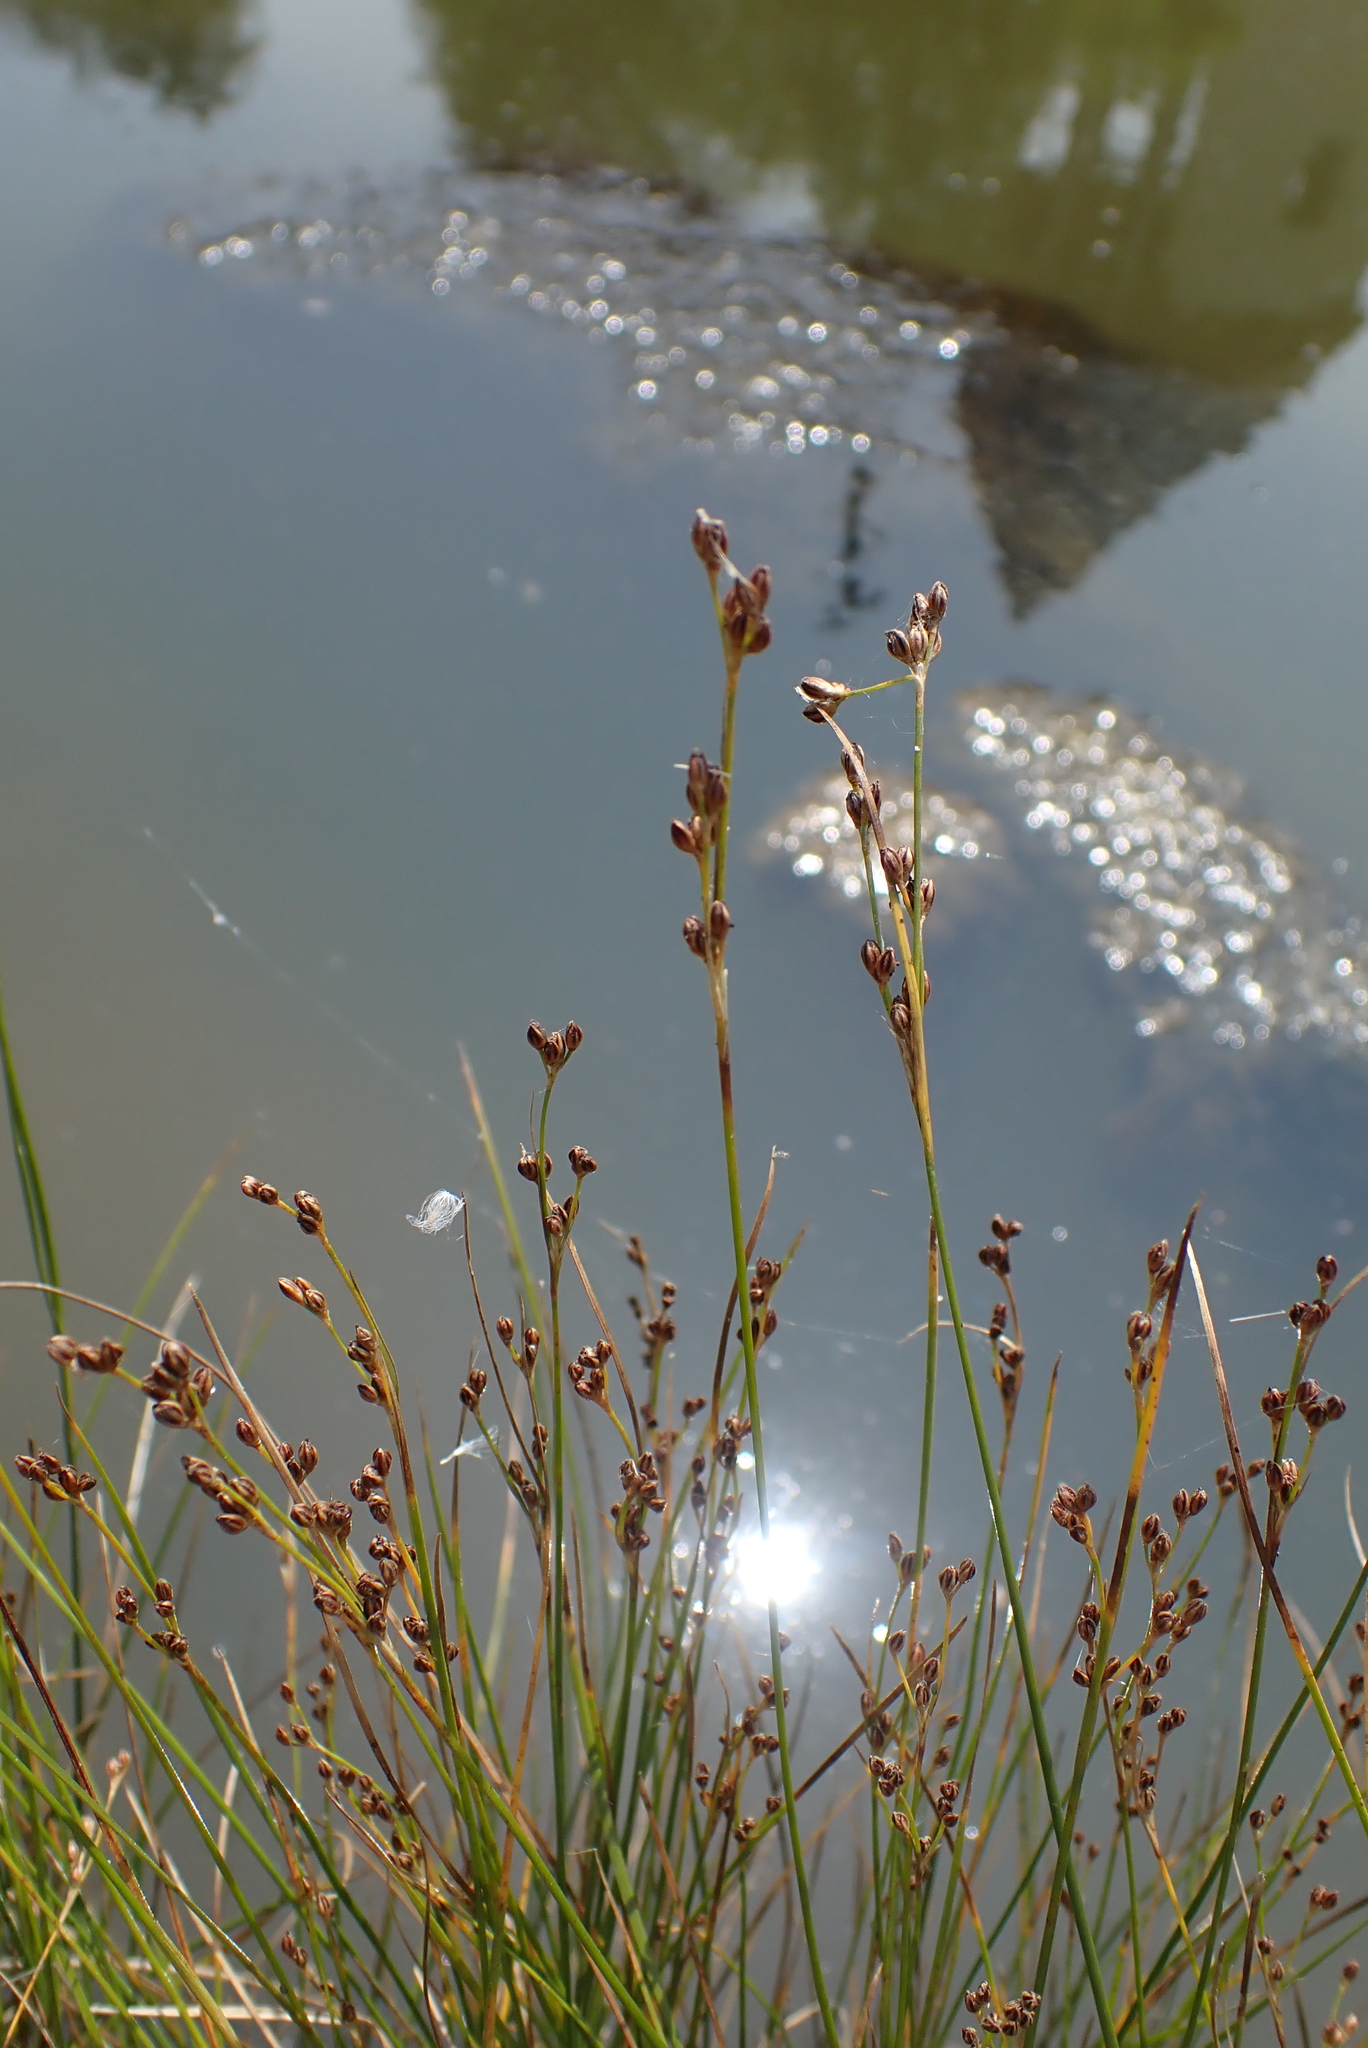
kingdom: Plantae
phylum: Tracheophyta
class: Liliopsida
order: Poales
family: Juncaceae
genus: Juncus
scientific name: Juncus gerardi
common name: Saltmarsh rush
